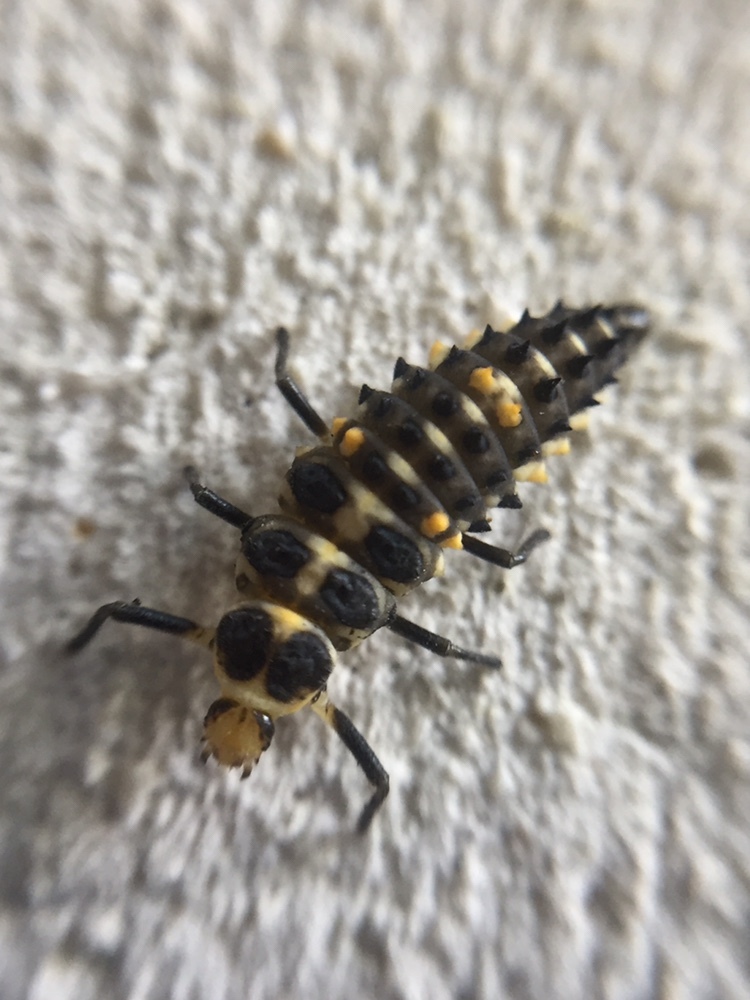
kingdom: Animalia
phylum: Arthropoda
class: Insecta
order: Coleoptera
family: Coccinellidae
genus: Cleobora
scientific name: Cleobora
